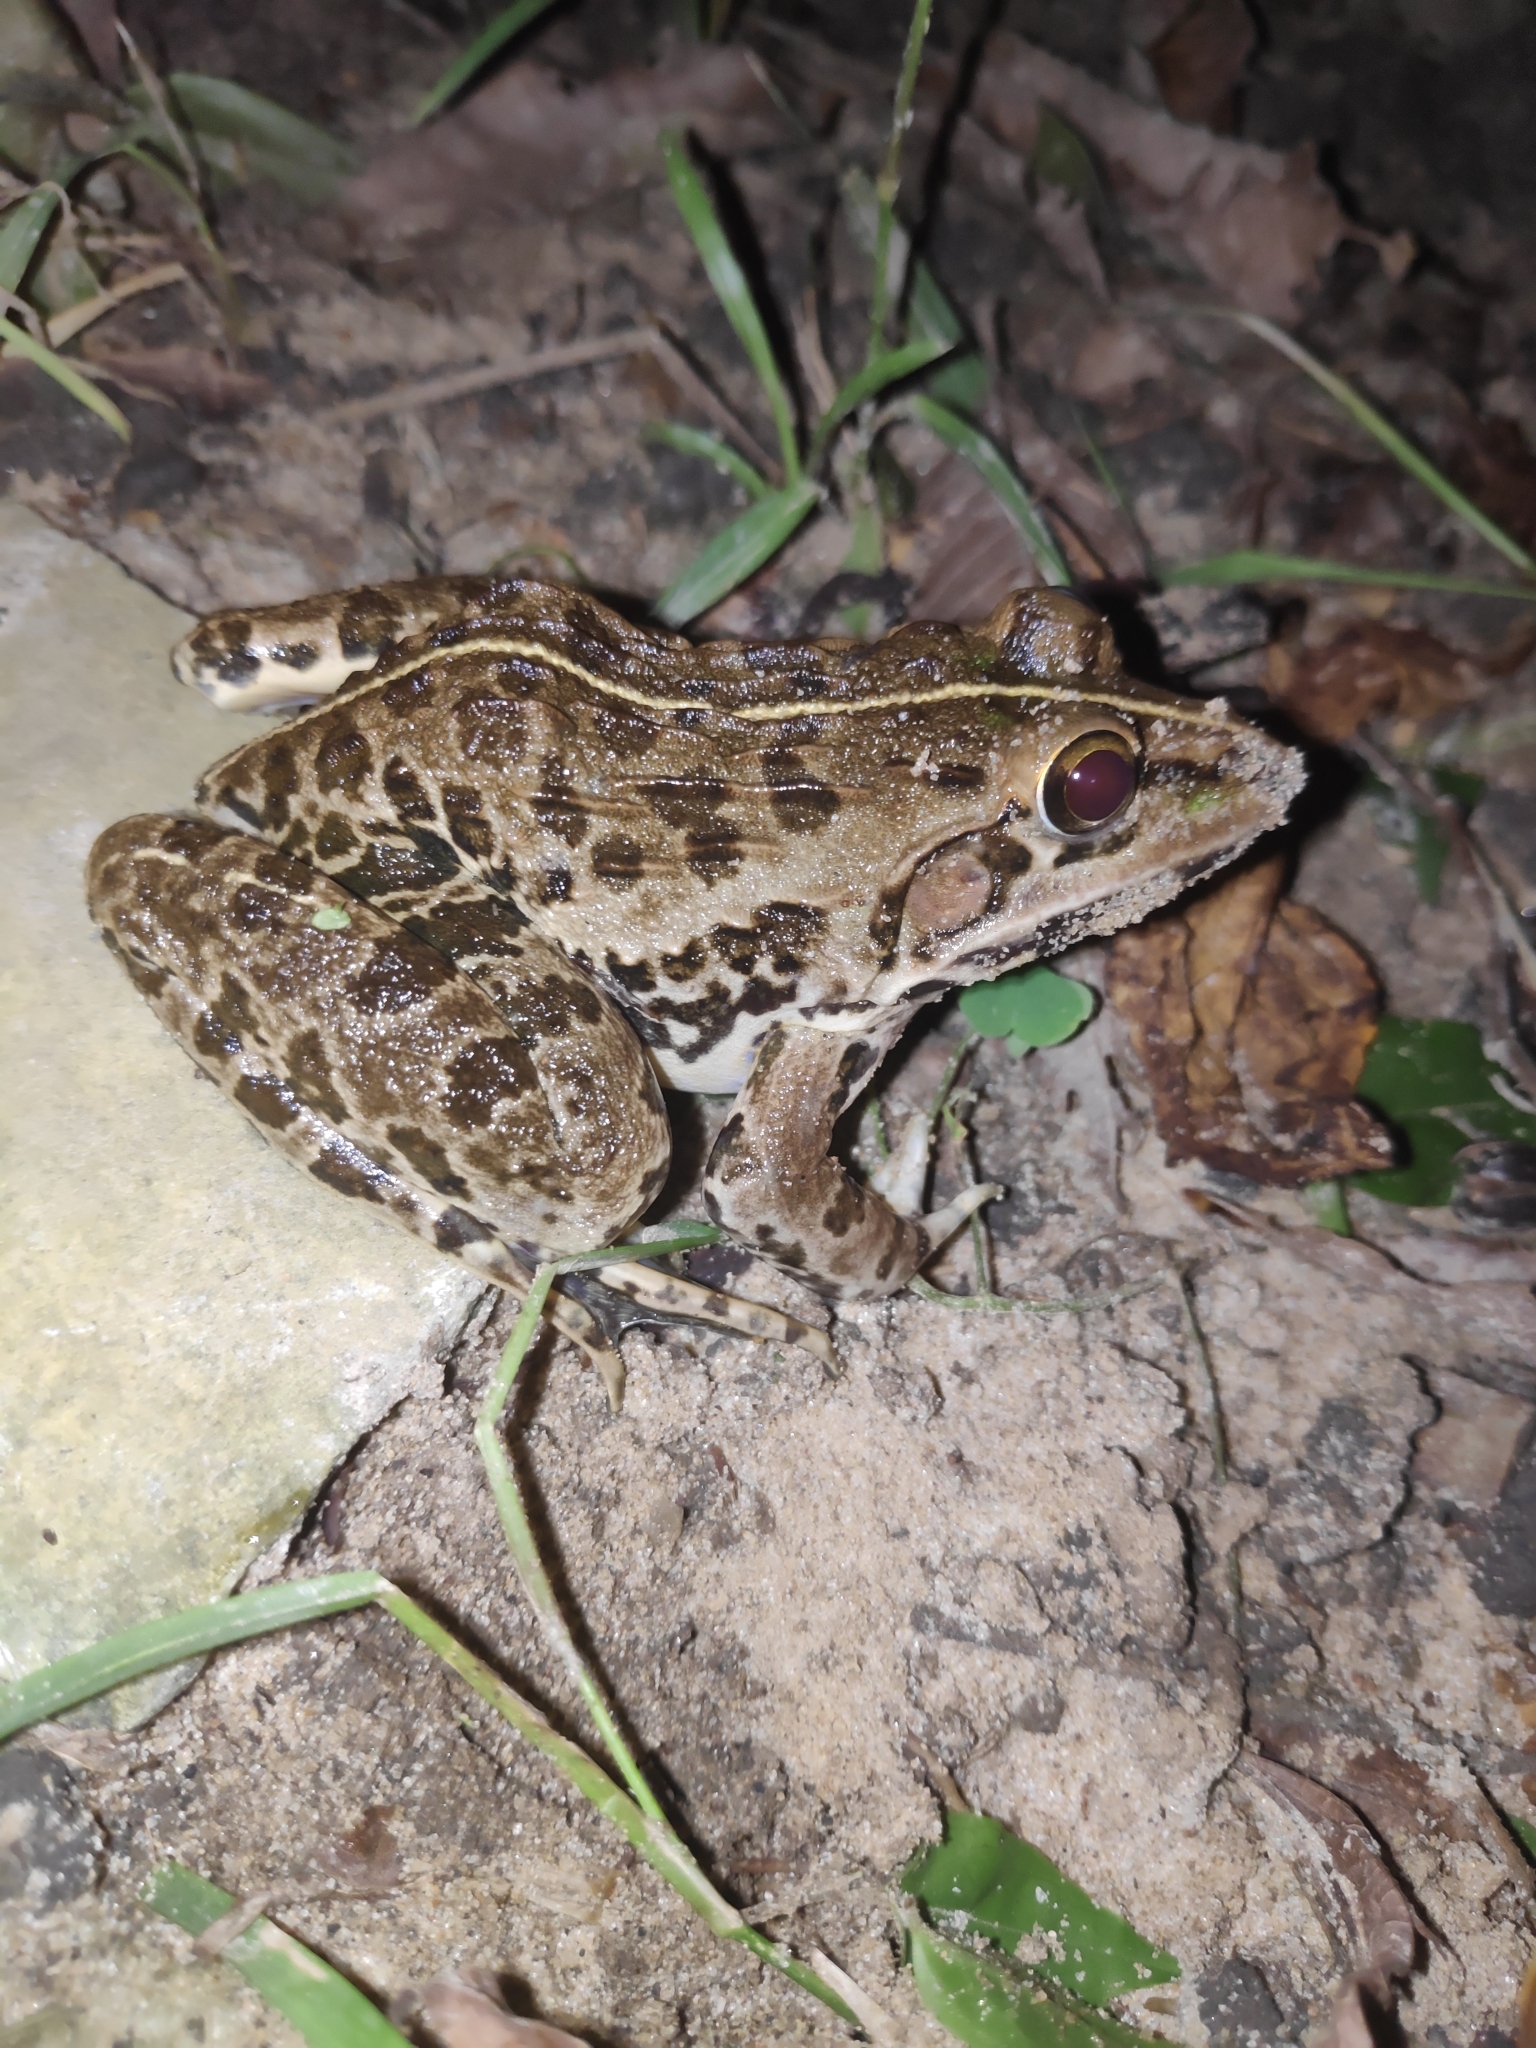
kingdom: Animalia
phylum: Chordata
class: Amphibia
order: Anura
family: Dicroglossidae
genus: Hoplobatrachus
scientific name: Hoplobatrachus tigerinus
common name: Indian bullfrog
